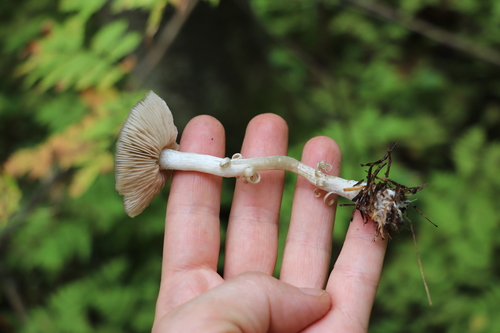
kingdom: Fungi
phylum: Basidiomycota
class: Agaricomycetes
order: Agaricales
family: Entolomataceae
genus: Entoloma
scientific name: Entoloma
